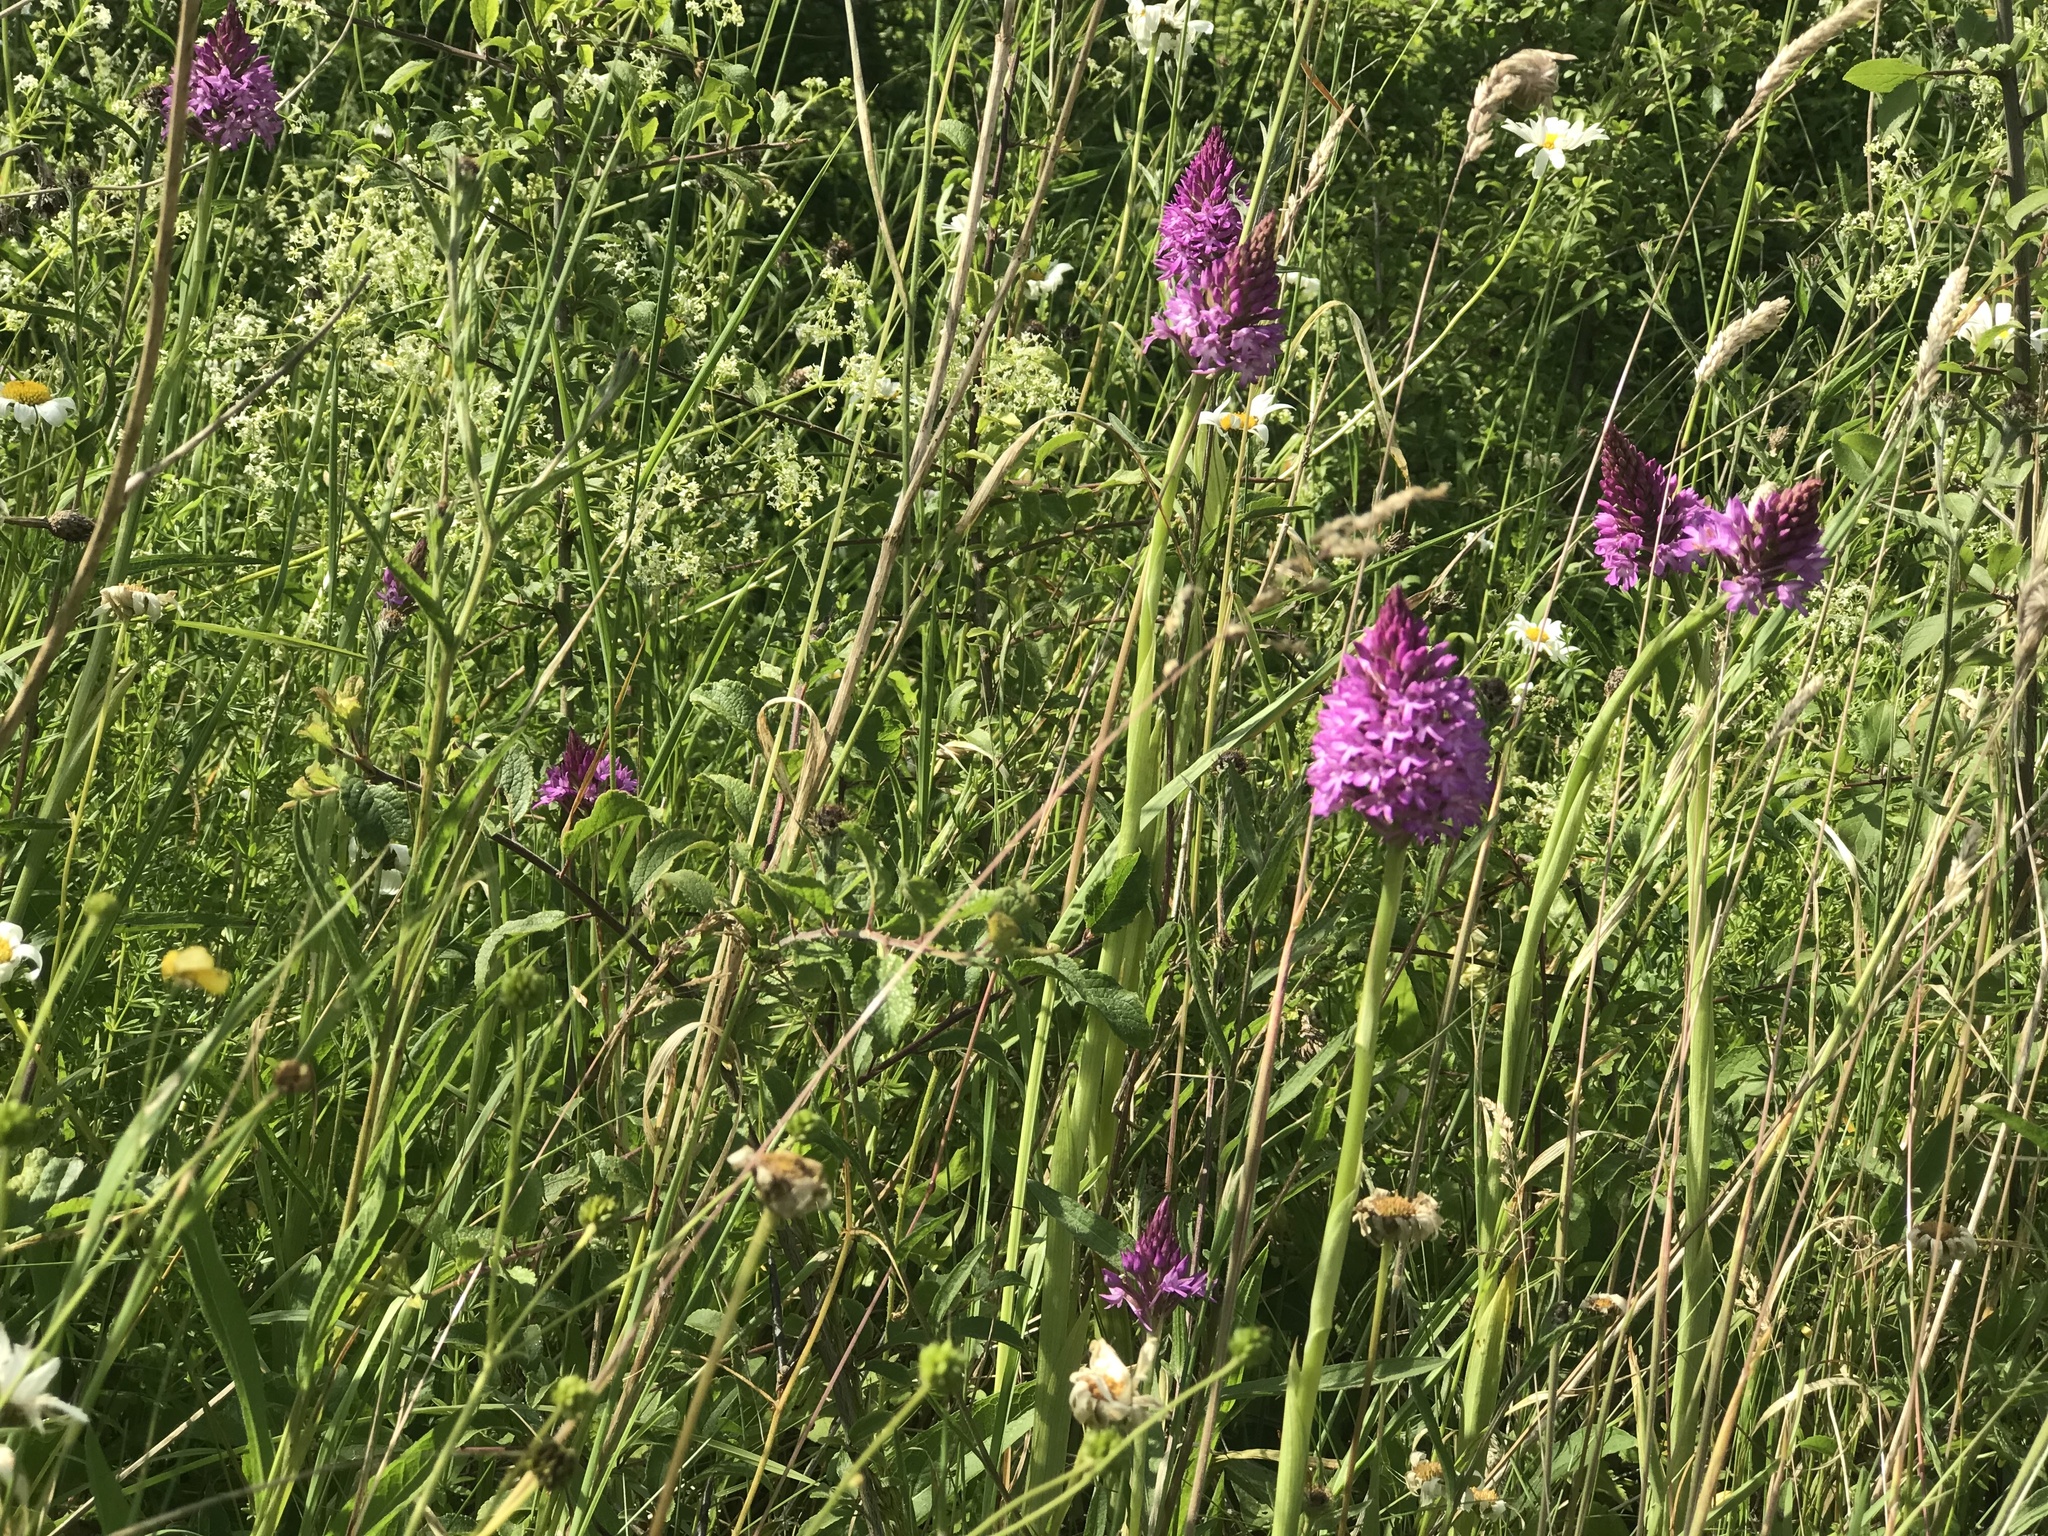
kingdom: Plantae
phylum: Tracheophyta
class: Liliopsida
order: Asparagales
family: Orchidaceae
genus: Anacamptis
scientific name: Anacamptis pyramidalis
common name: Pyramidal orchid
